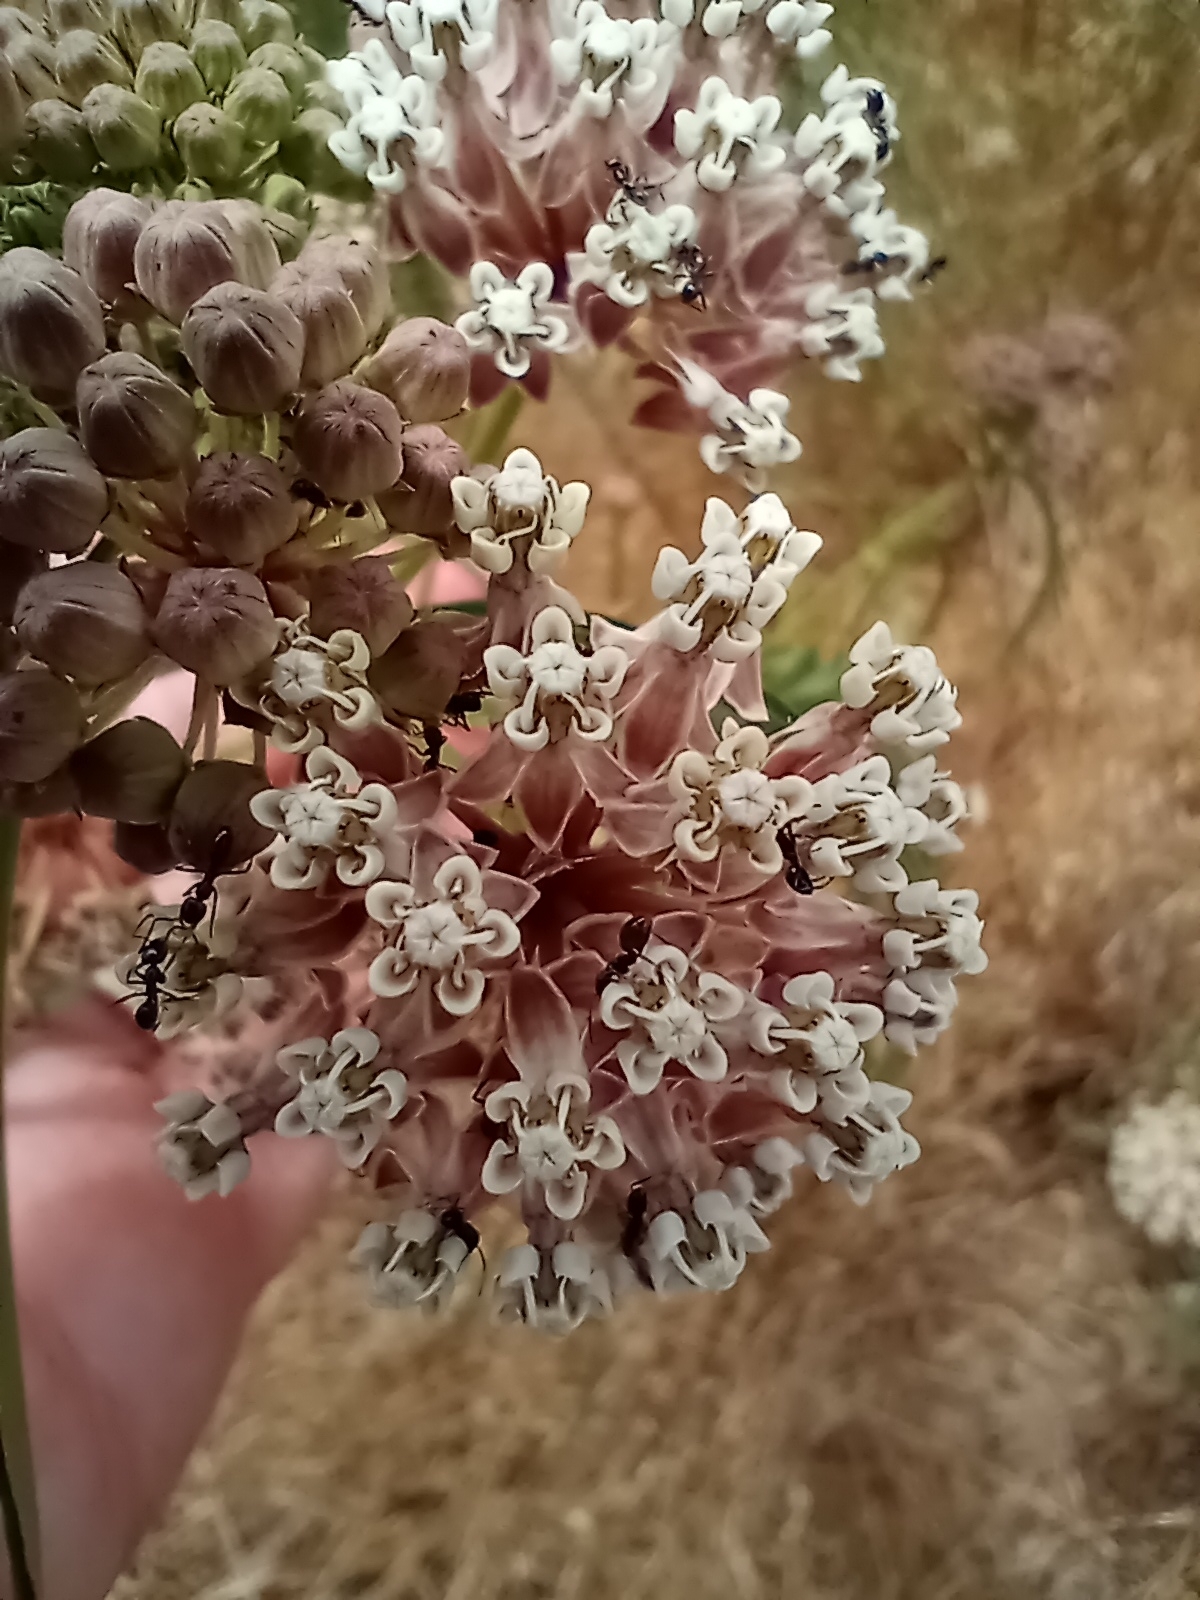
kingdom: Plantae
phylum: Tracheophyta
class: Magnoliopsida
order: Gentianales
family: Apocynaceae
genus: Asclepias
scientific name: Asclepias fascicularis
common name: Mexican milkweed
